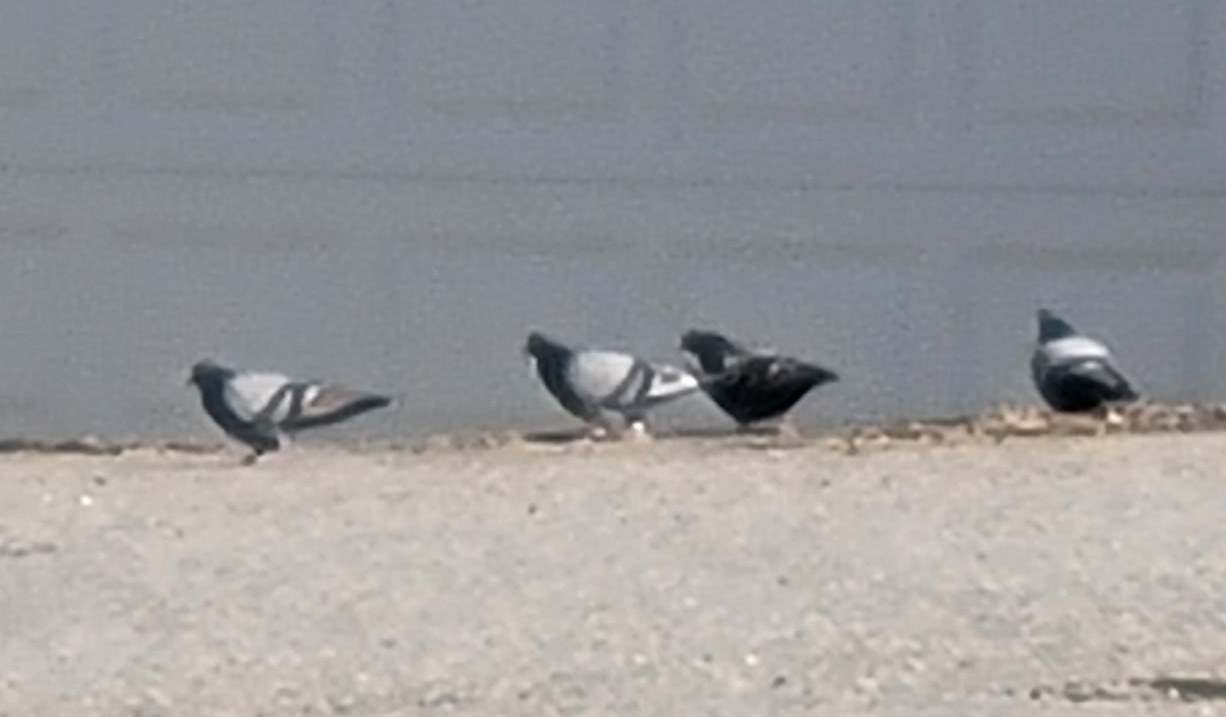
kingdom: Animalia
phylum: Chordata
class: Aves
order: Columbiformes
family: Columbidae
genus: Columba
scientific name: Columba livia
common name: Rock pigeon
